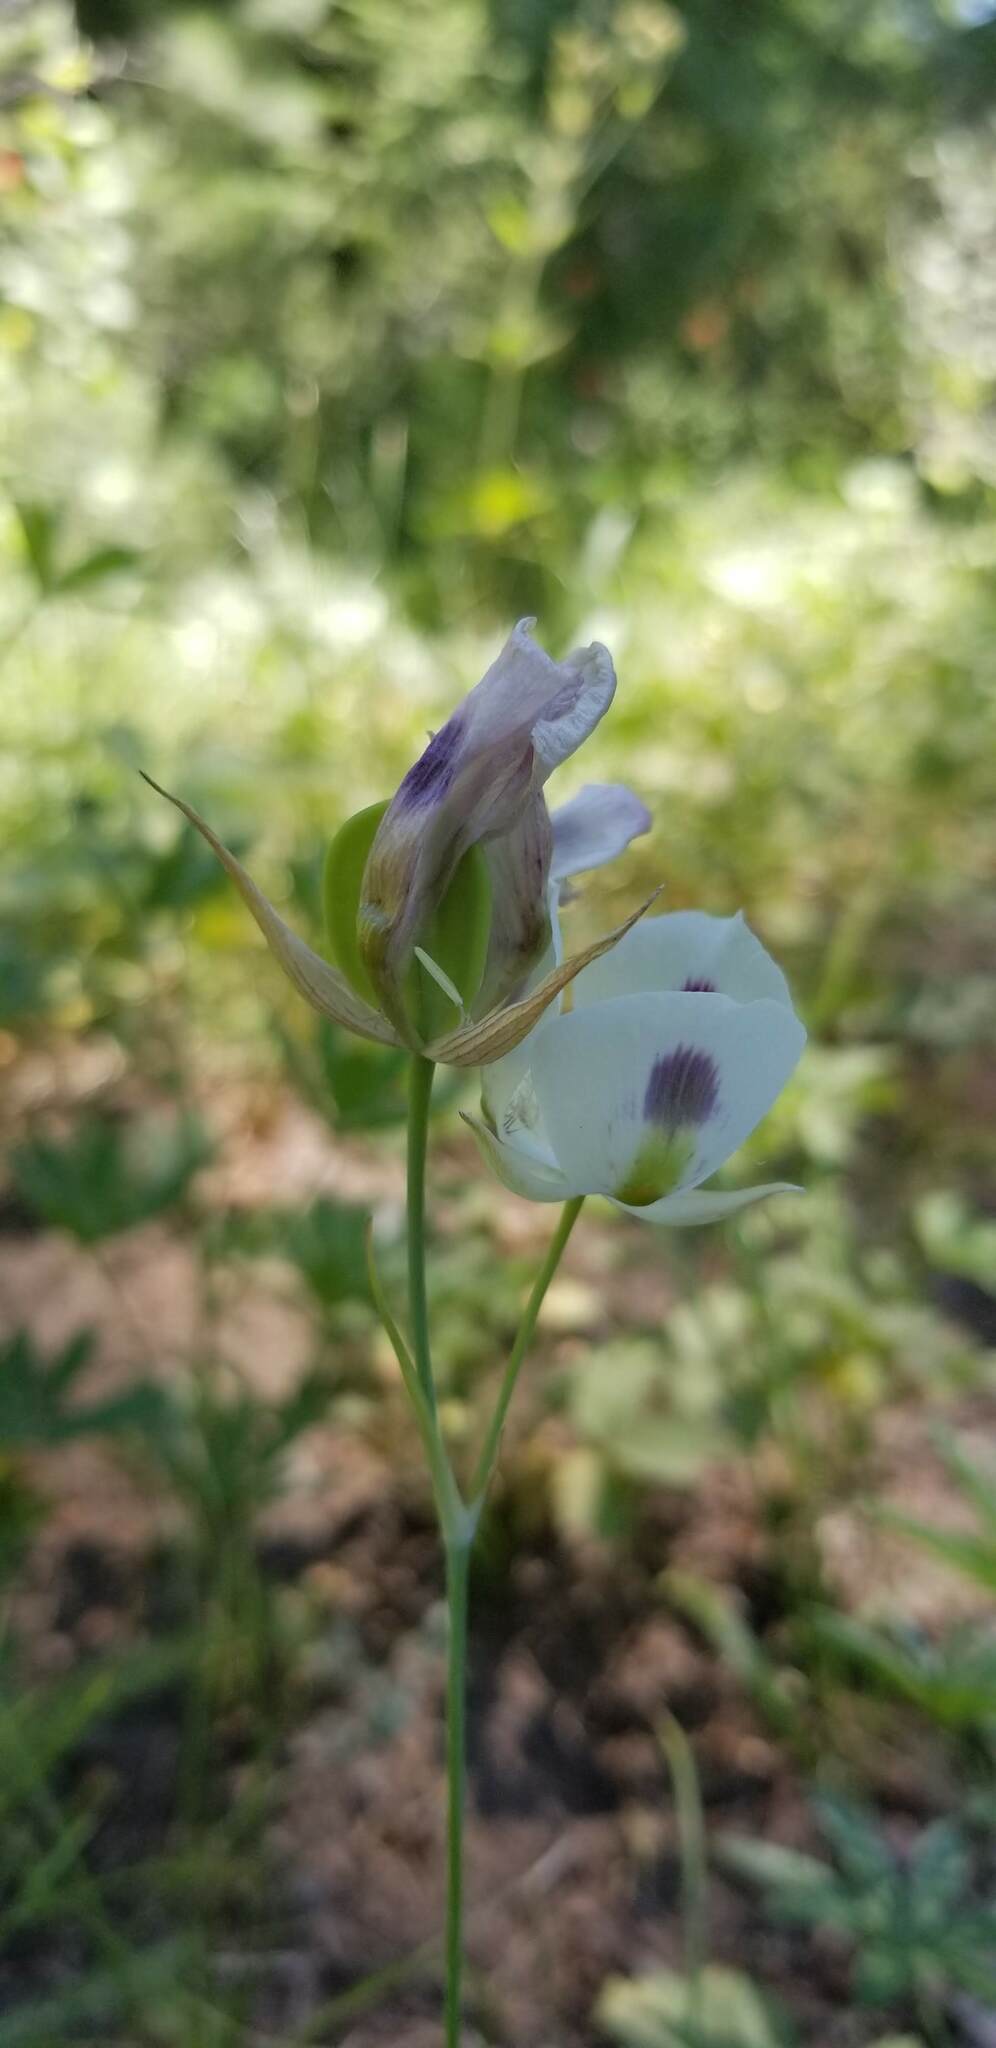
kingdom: Plantae
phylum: Tracheophyta
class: Liliopsida
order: Liliales
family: Liliaceae
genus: Calochortus
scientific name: Calochortus eurycarpus
